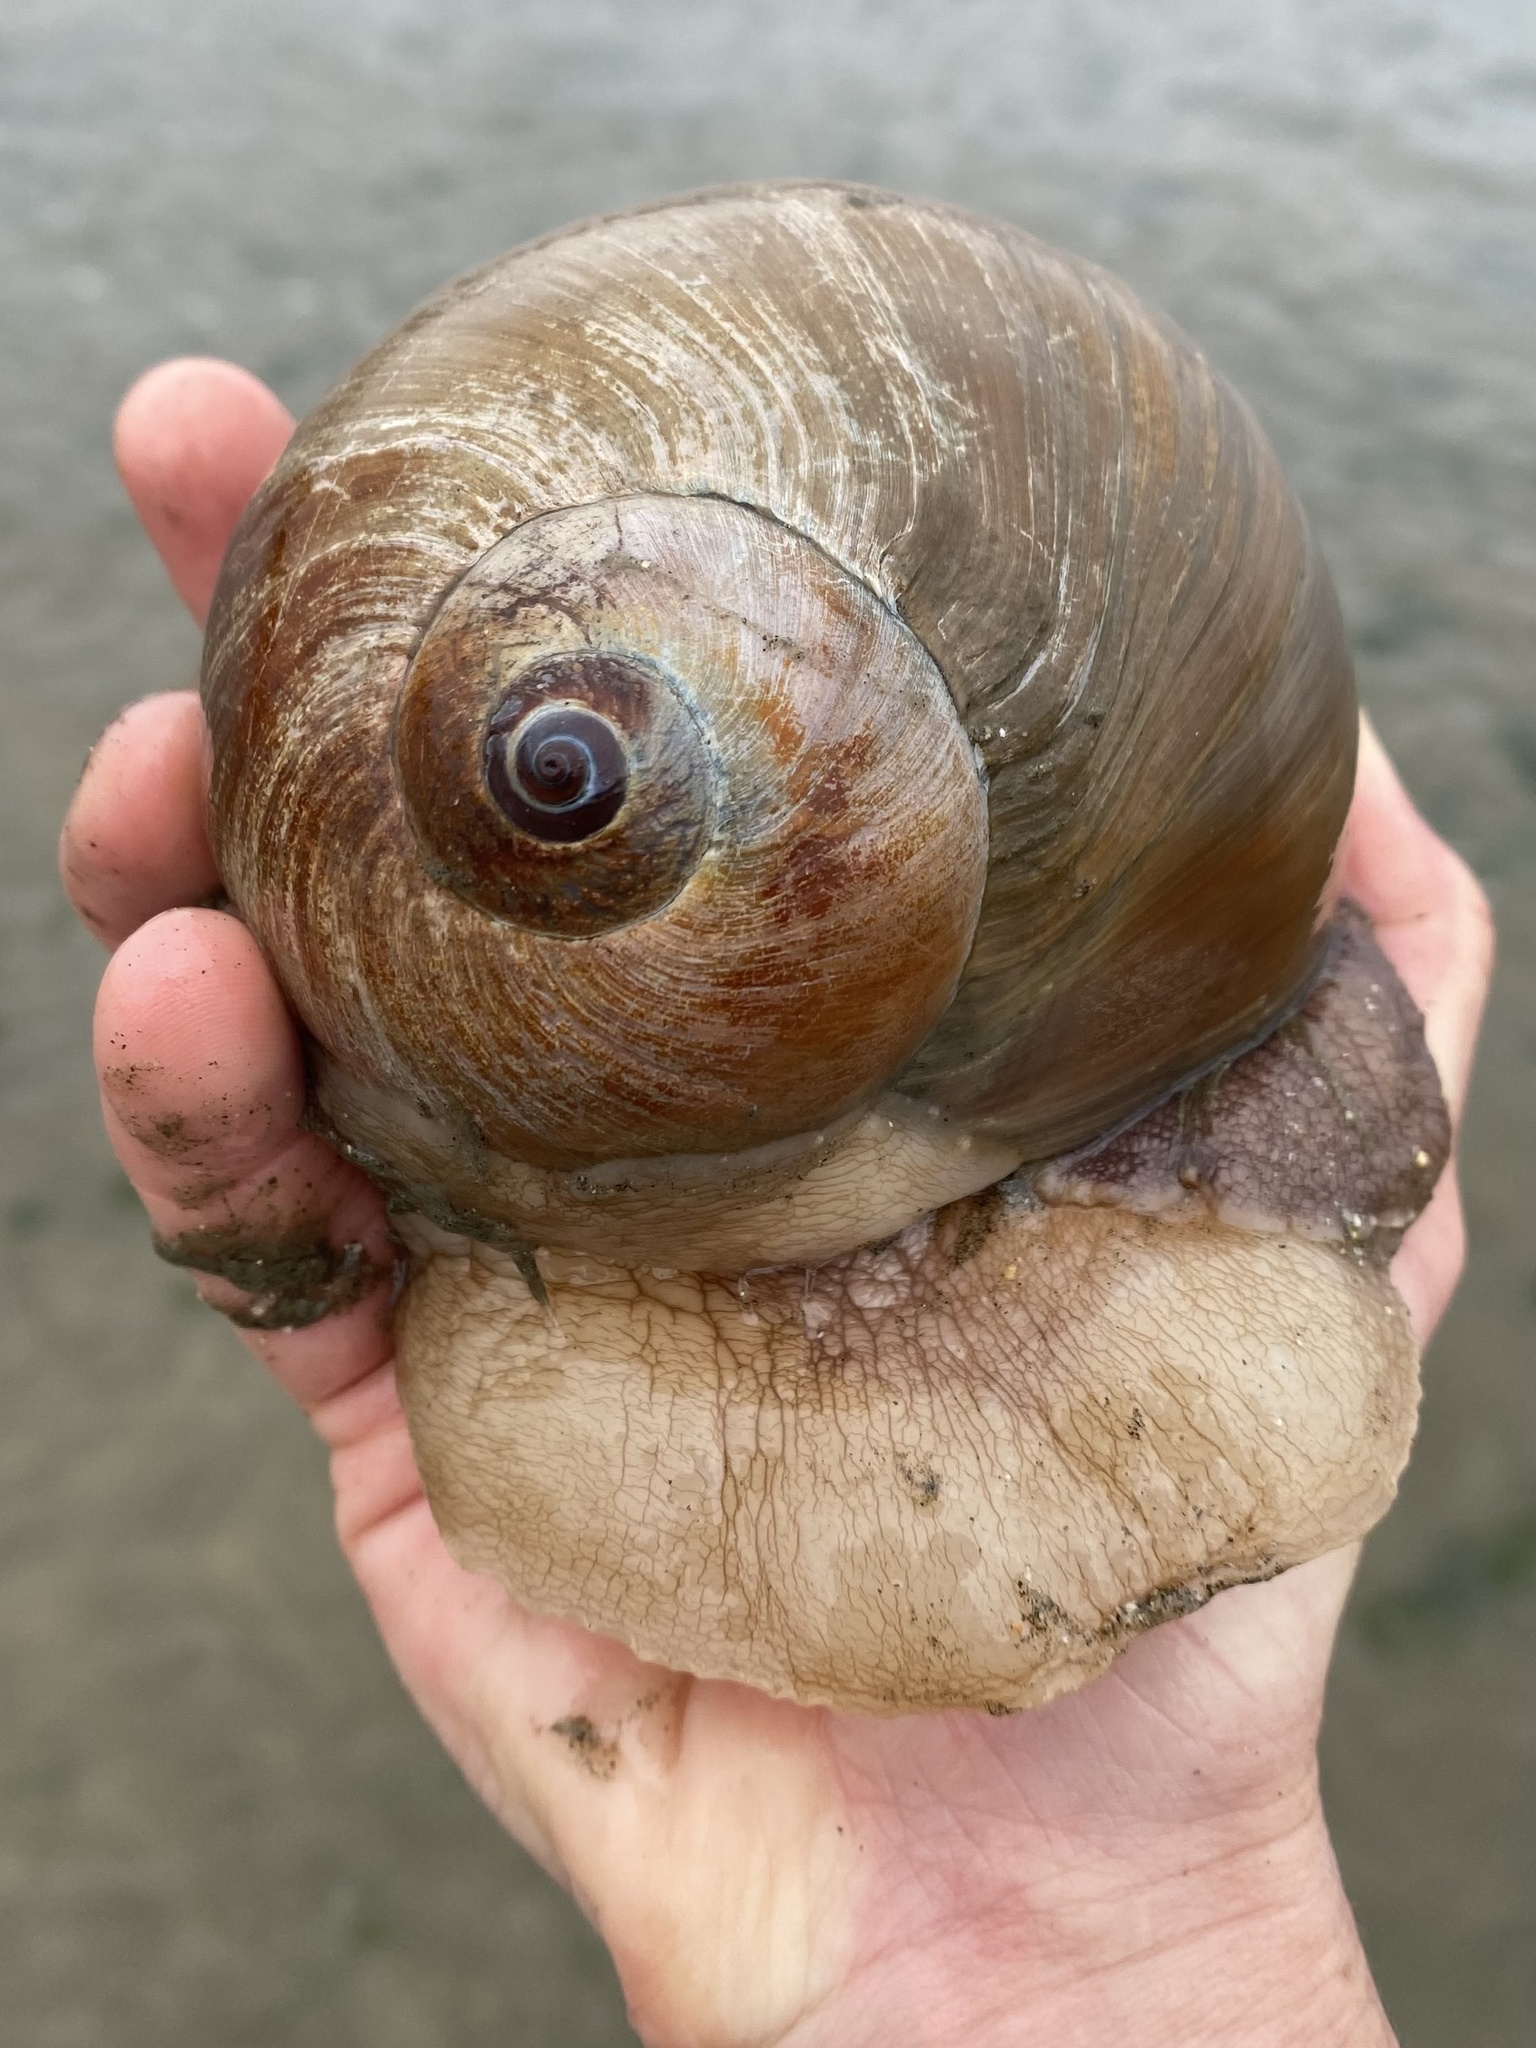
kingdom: Animalia
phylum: Mollusca
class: Gastropoda
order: Littorinimorpha
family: Naticidae
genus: Neverita
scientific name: Neverita lewisii
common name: Lewis' moonsnail
